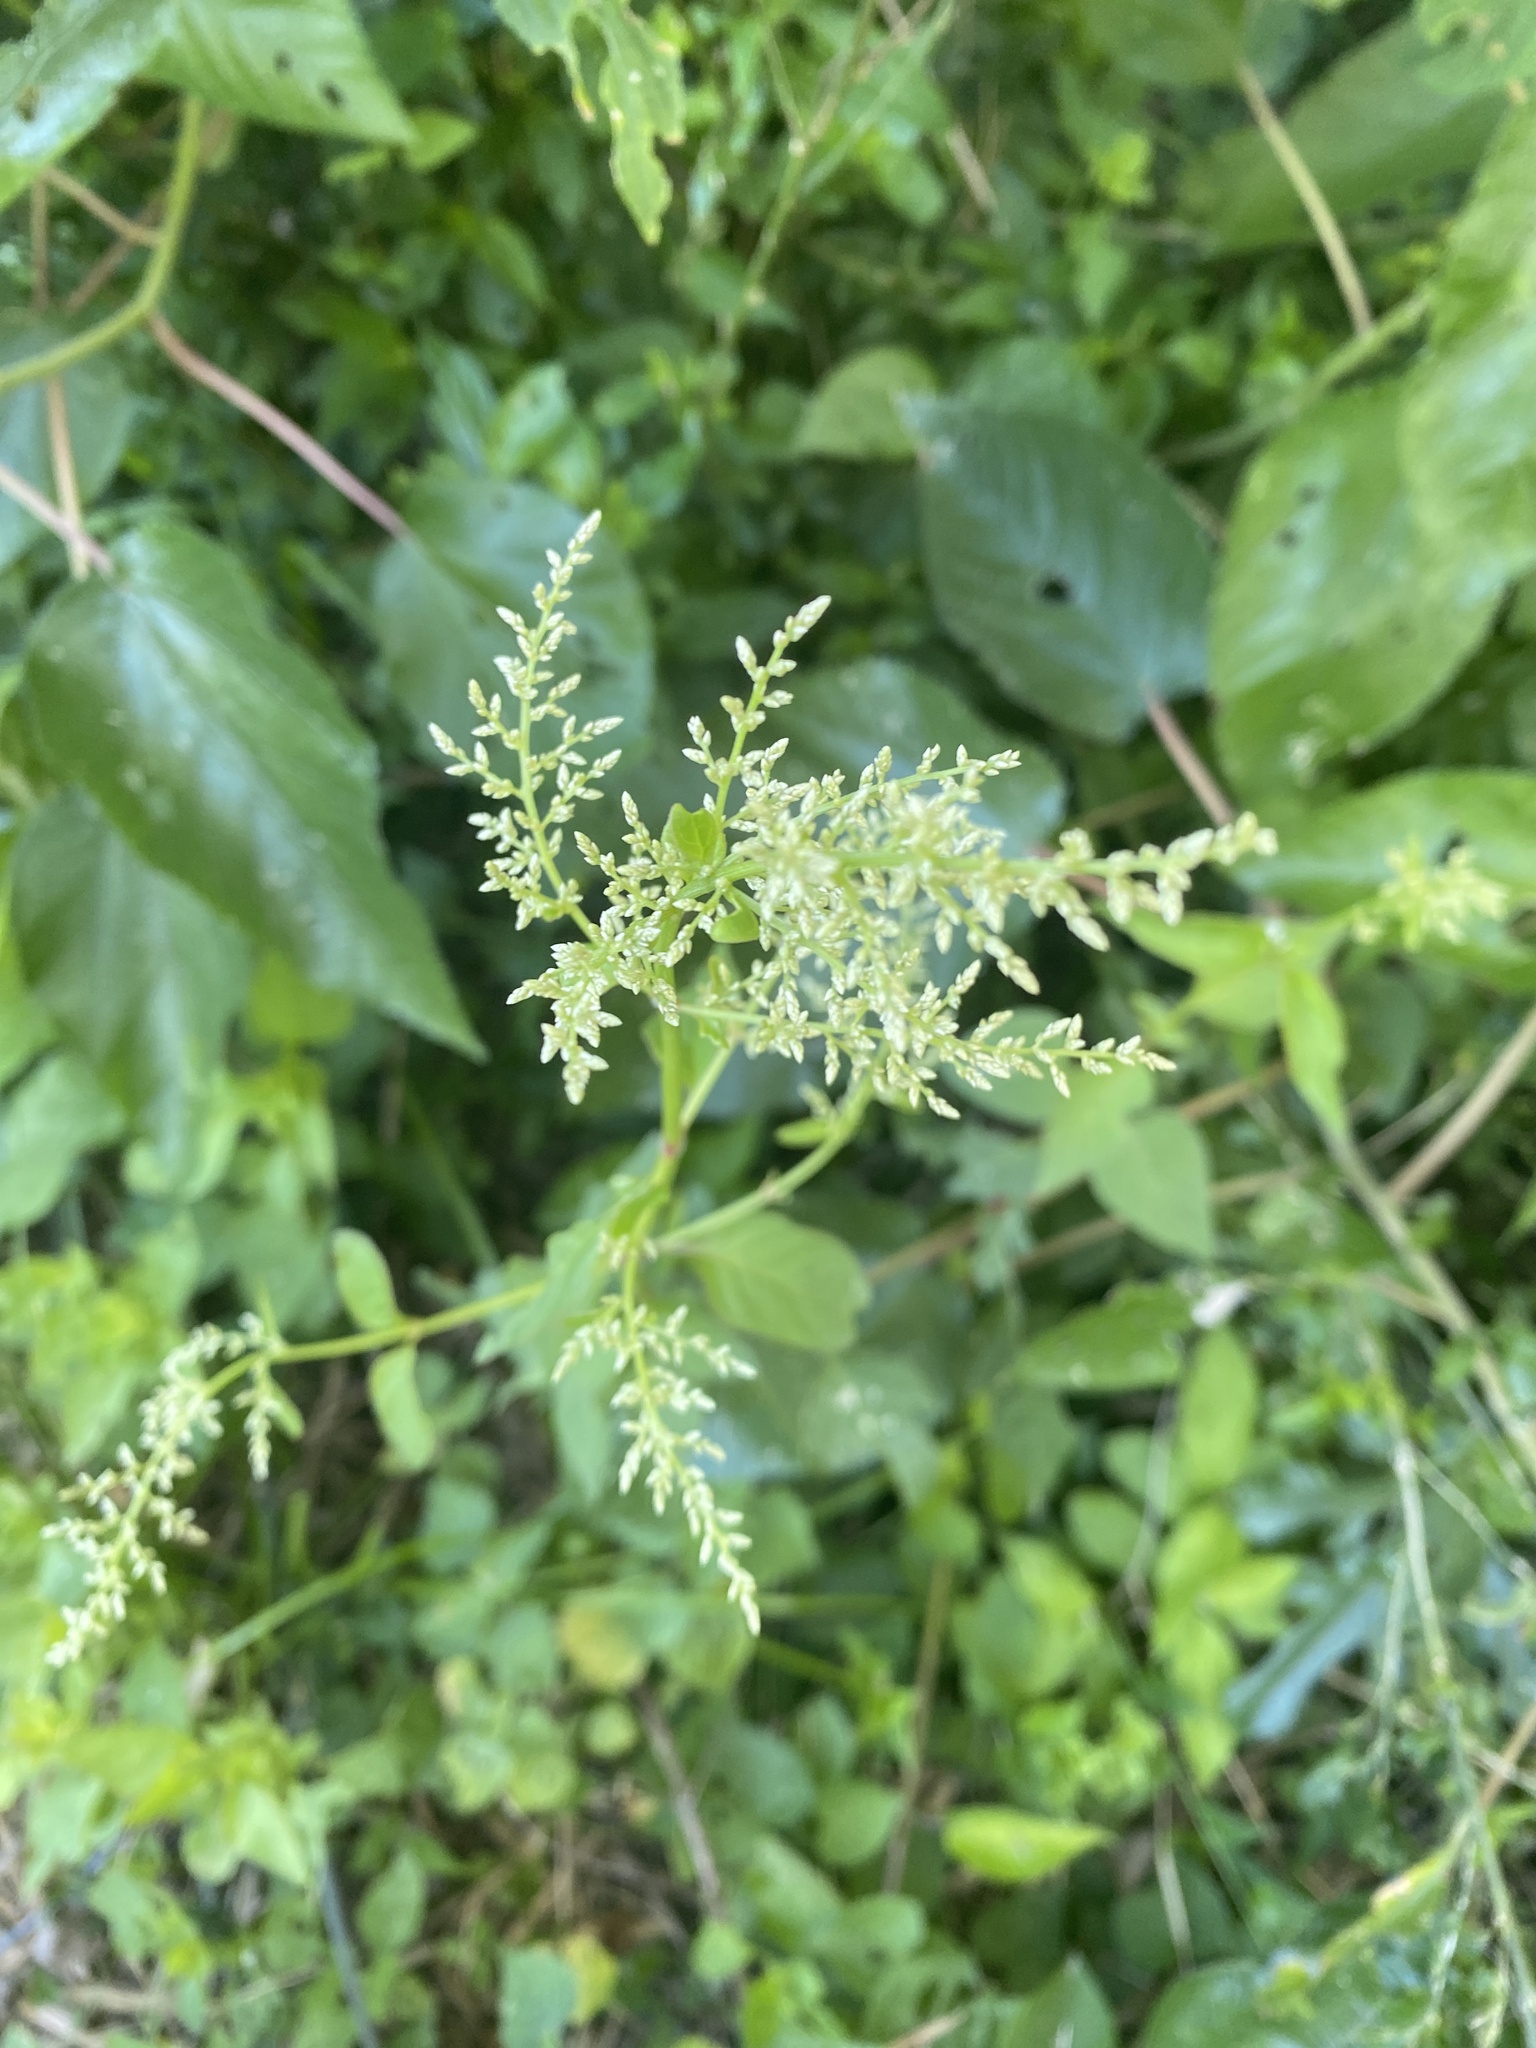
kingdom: Plantae
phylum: Tracheophyta
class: Magnoliopsida
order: Caryophyllales
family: Amaranthaceae
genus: Iresine
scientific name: Iresine diffusa
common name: Juba's-bush
